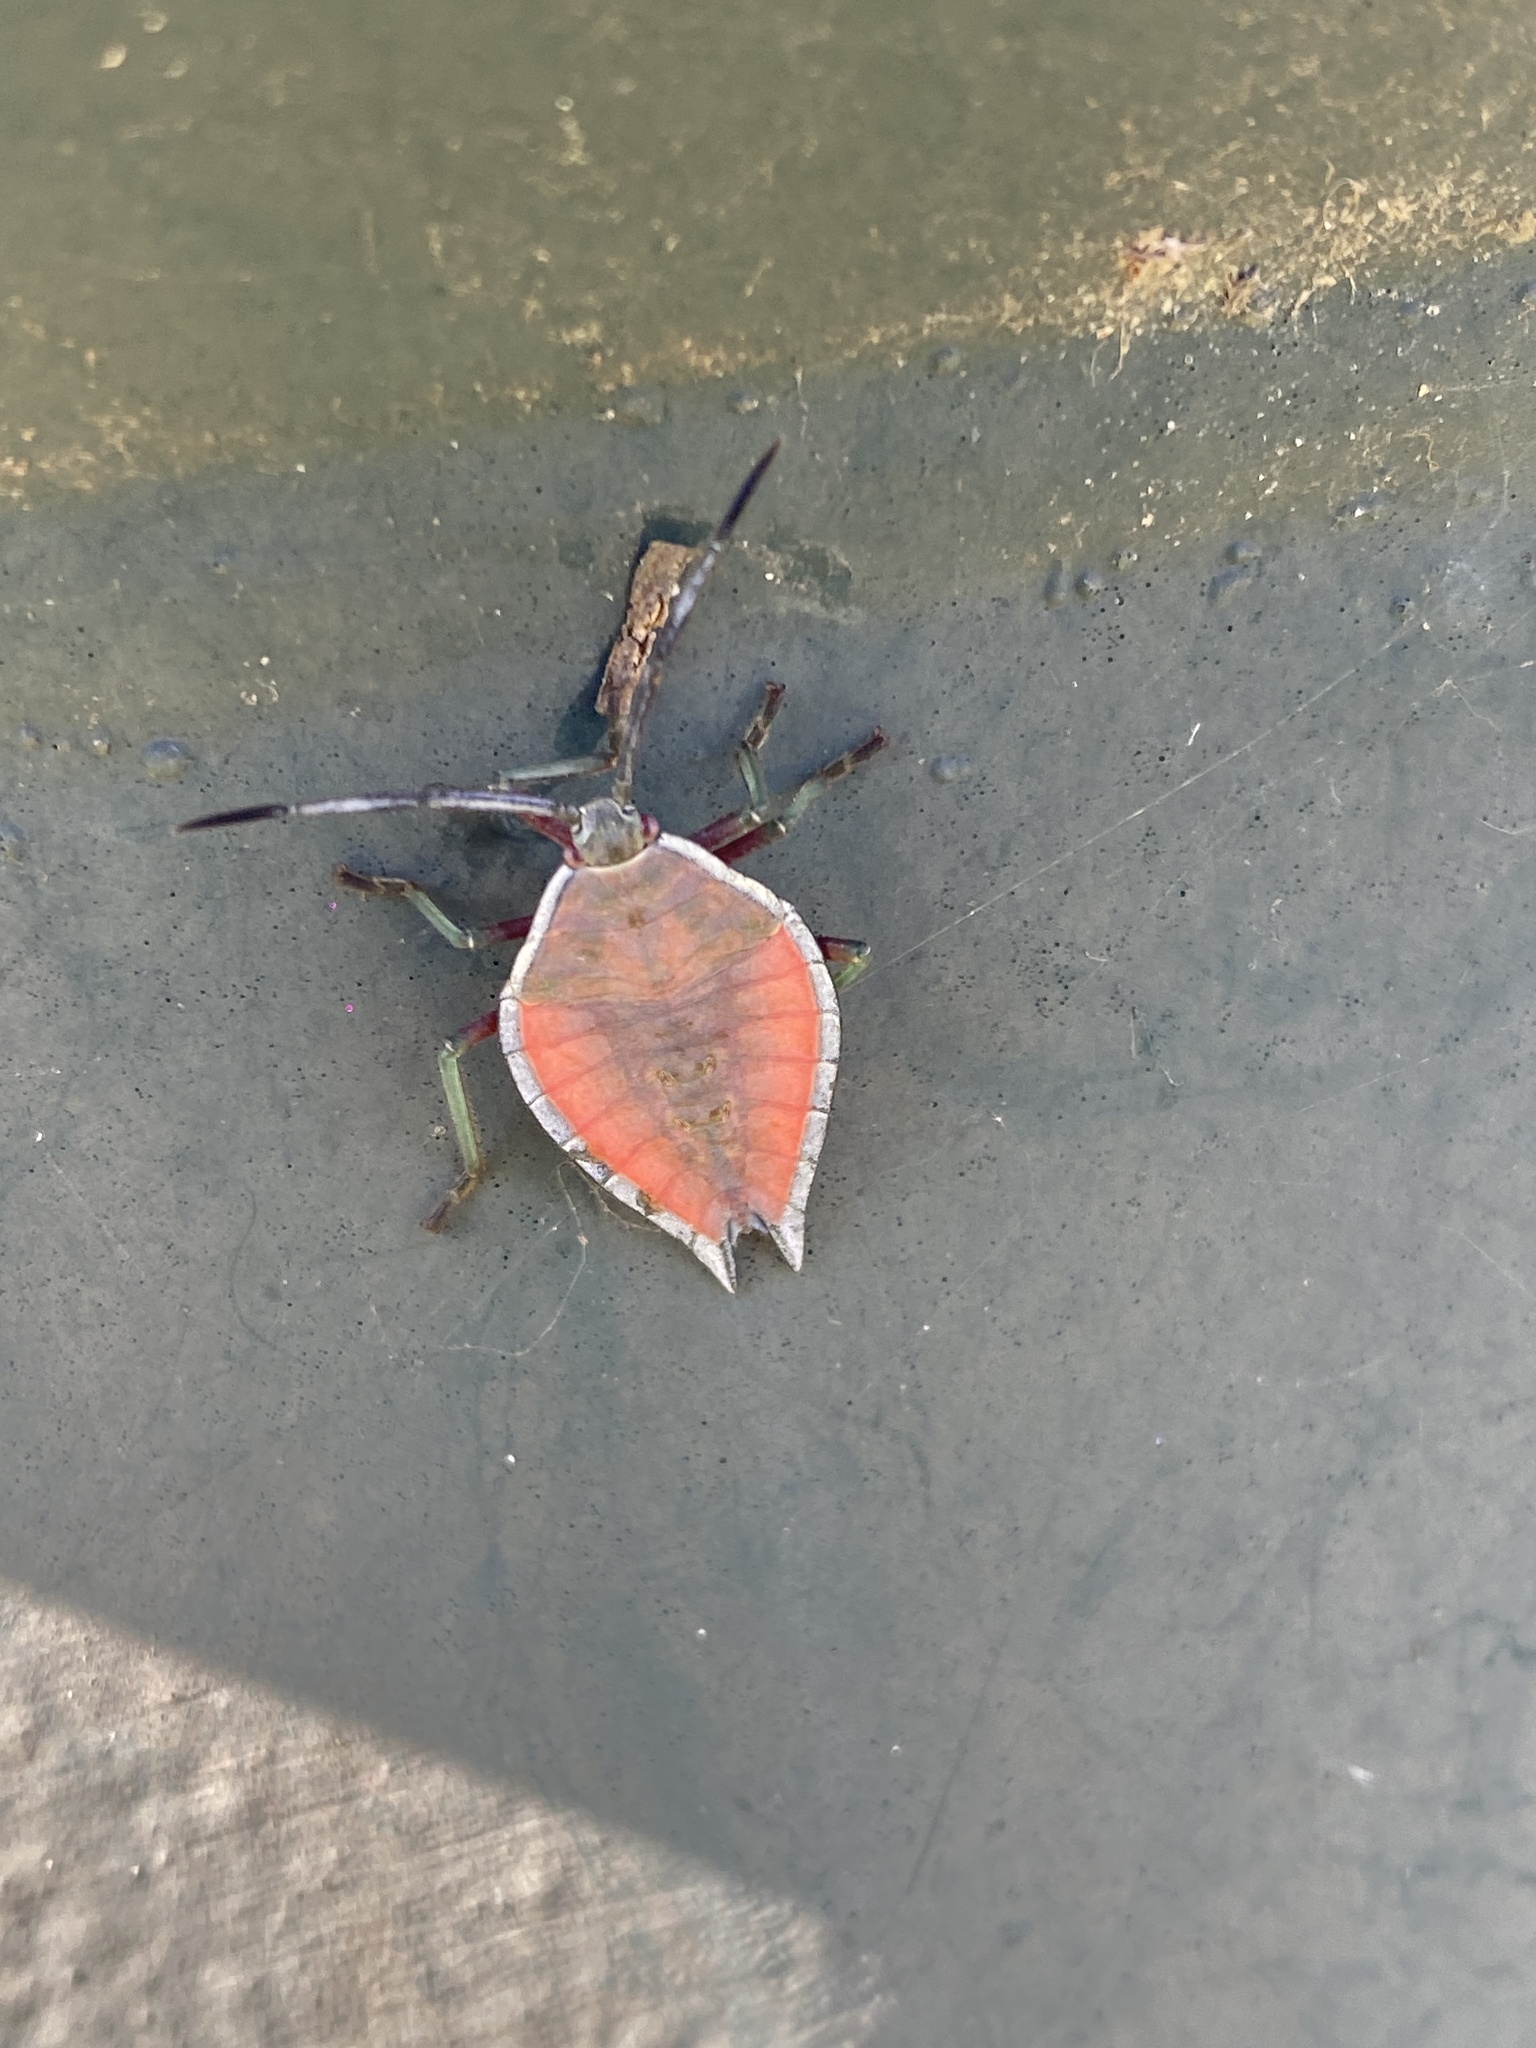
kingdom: Animalia
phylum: Arthropoda
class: Insecta
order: Hemiptera
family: Tessaratomidae
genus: Lyramorpha
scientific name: Lyramorpha rosea
